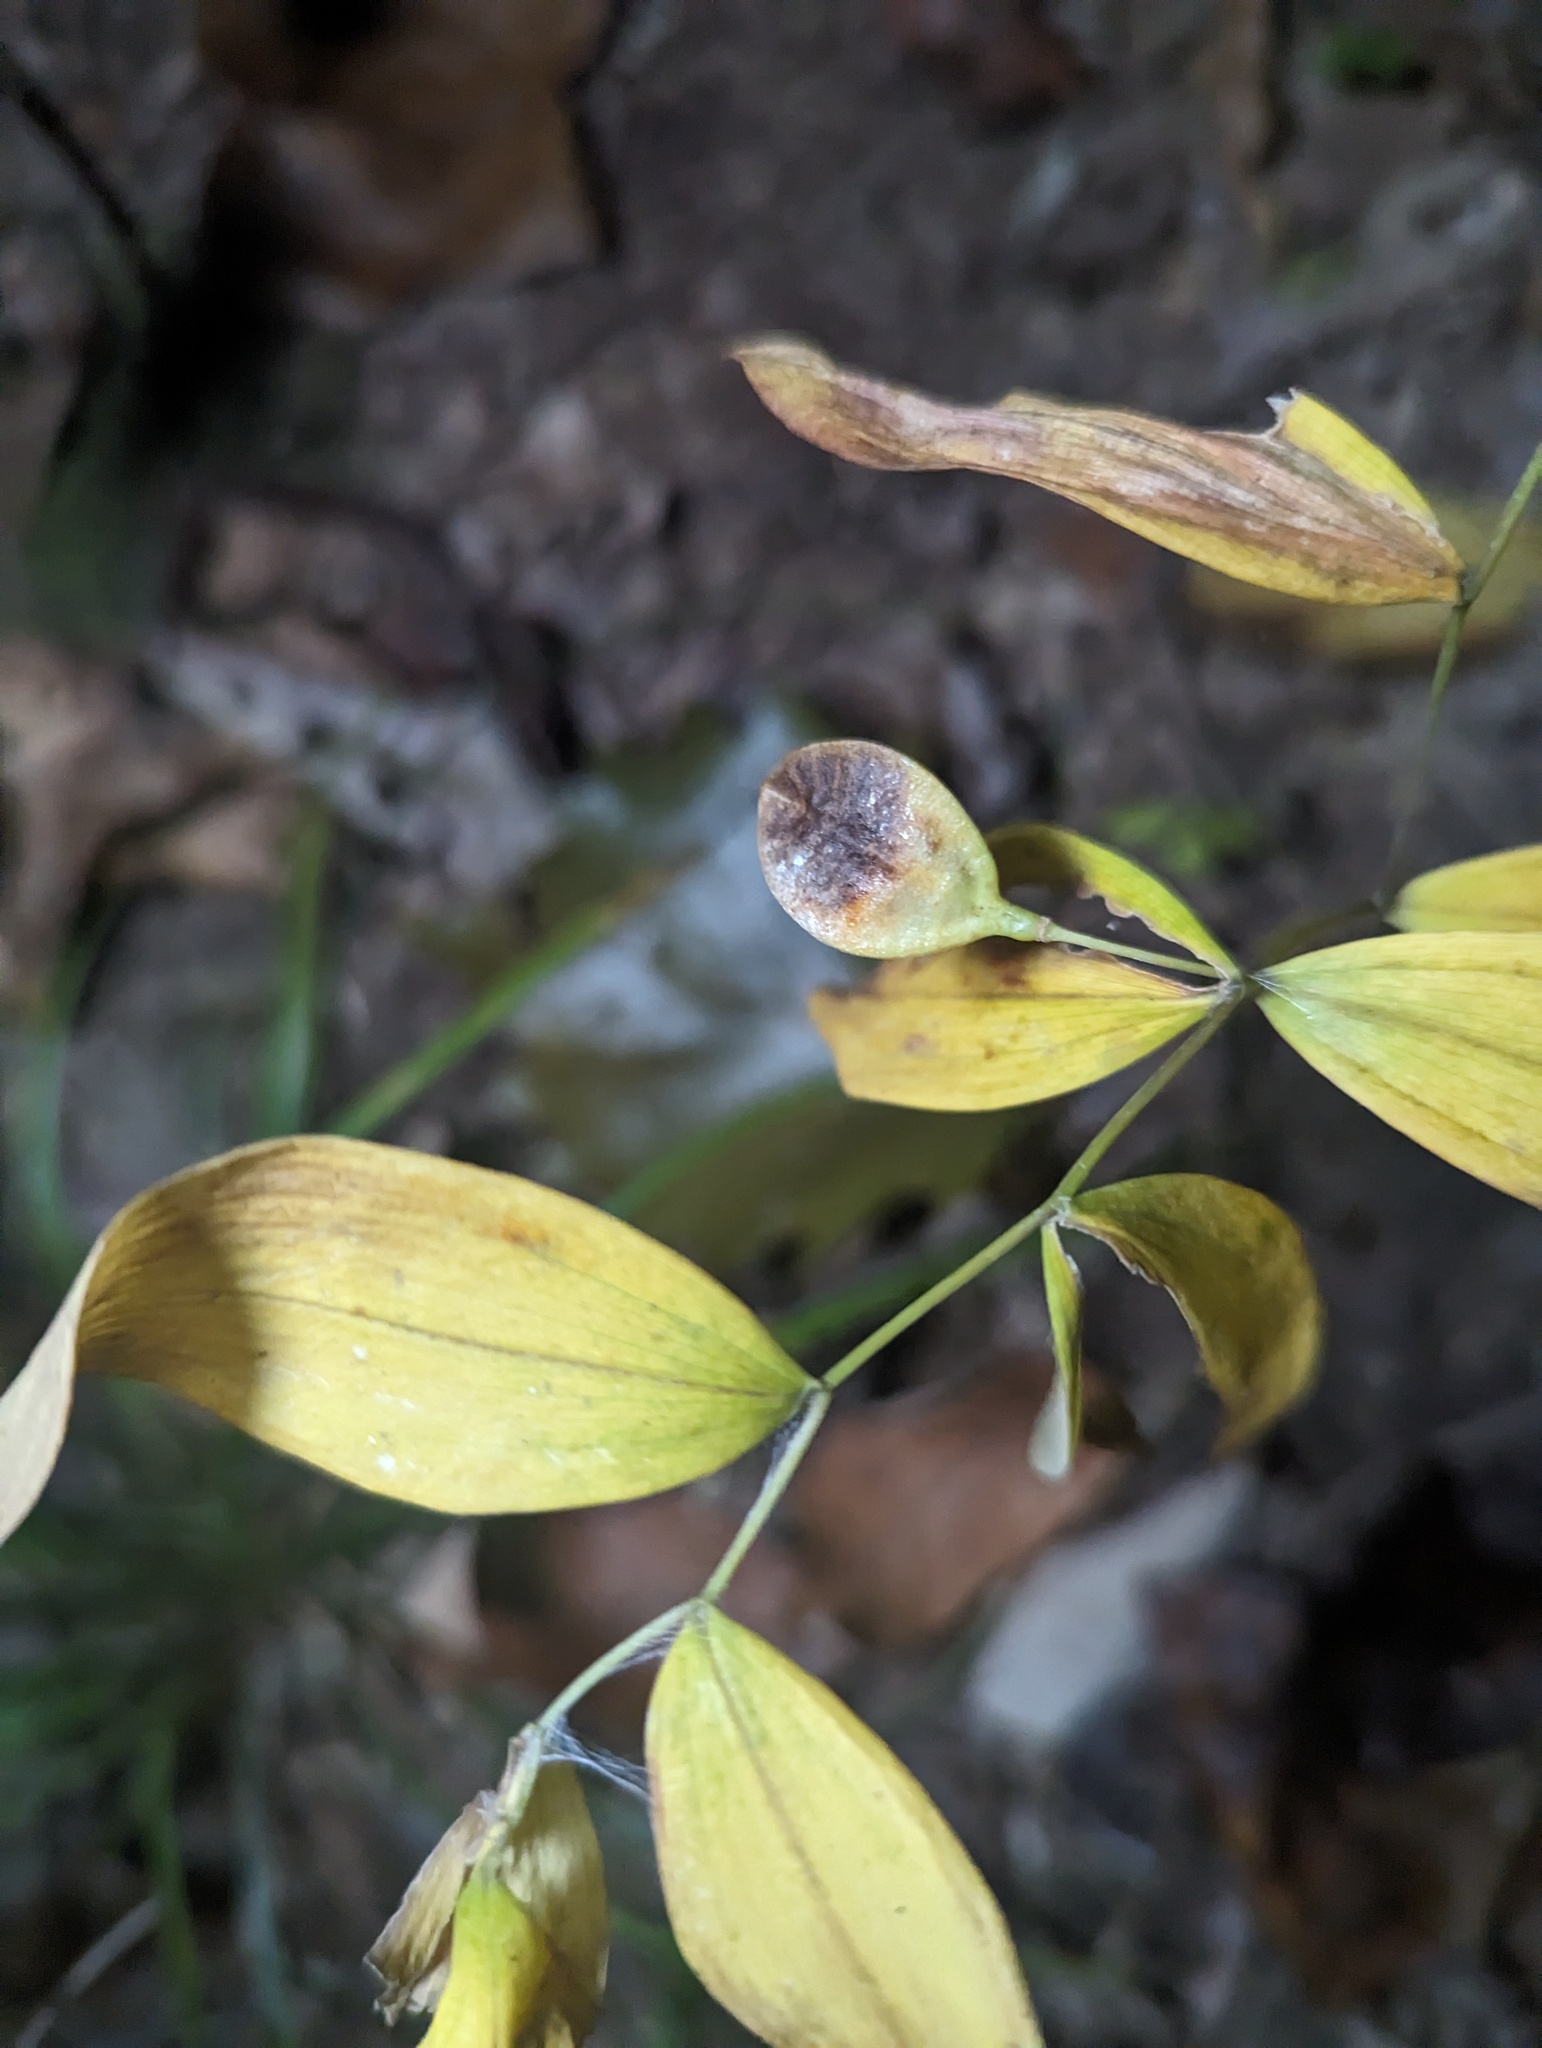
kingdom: Plantae
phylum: Tracheophyta
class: Liliopsida
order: Liliales
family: Colchicaceae
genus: Uvularia
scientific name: Uvularia sessilifolia
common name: Straw-lily
